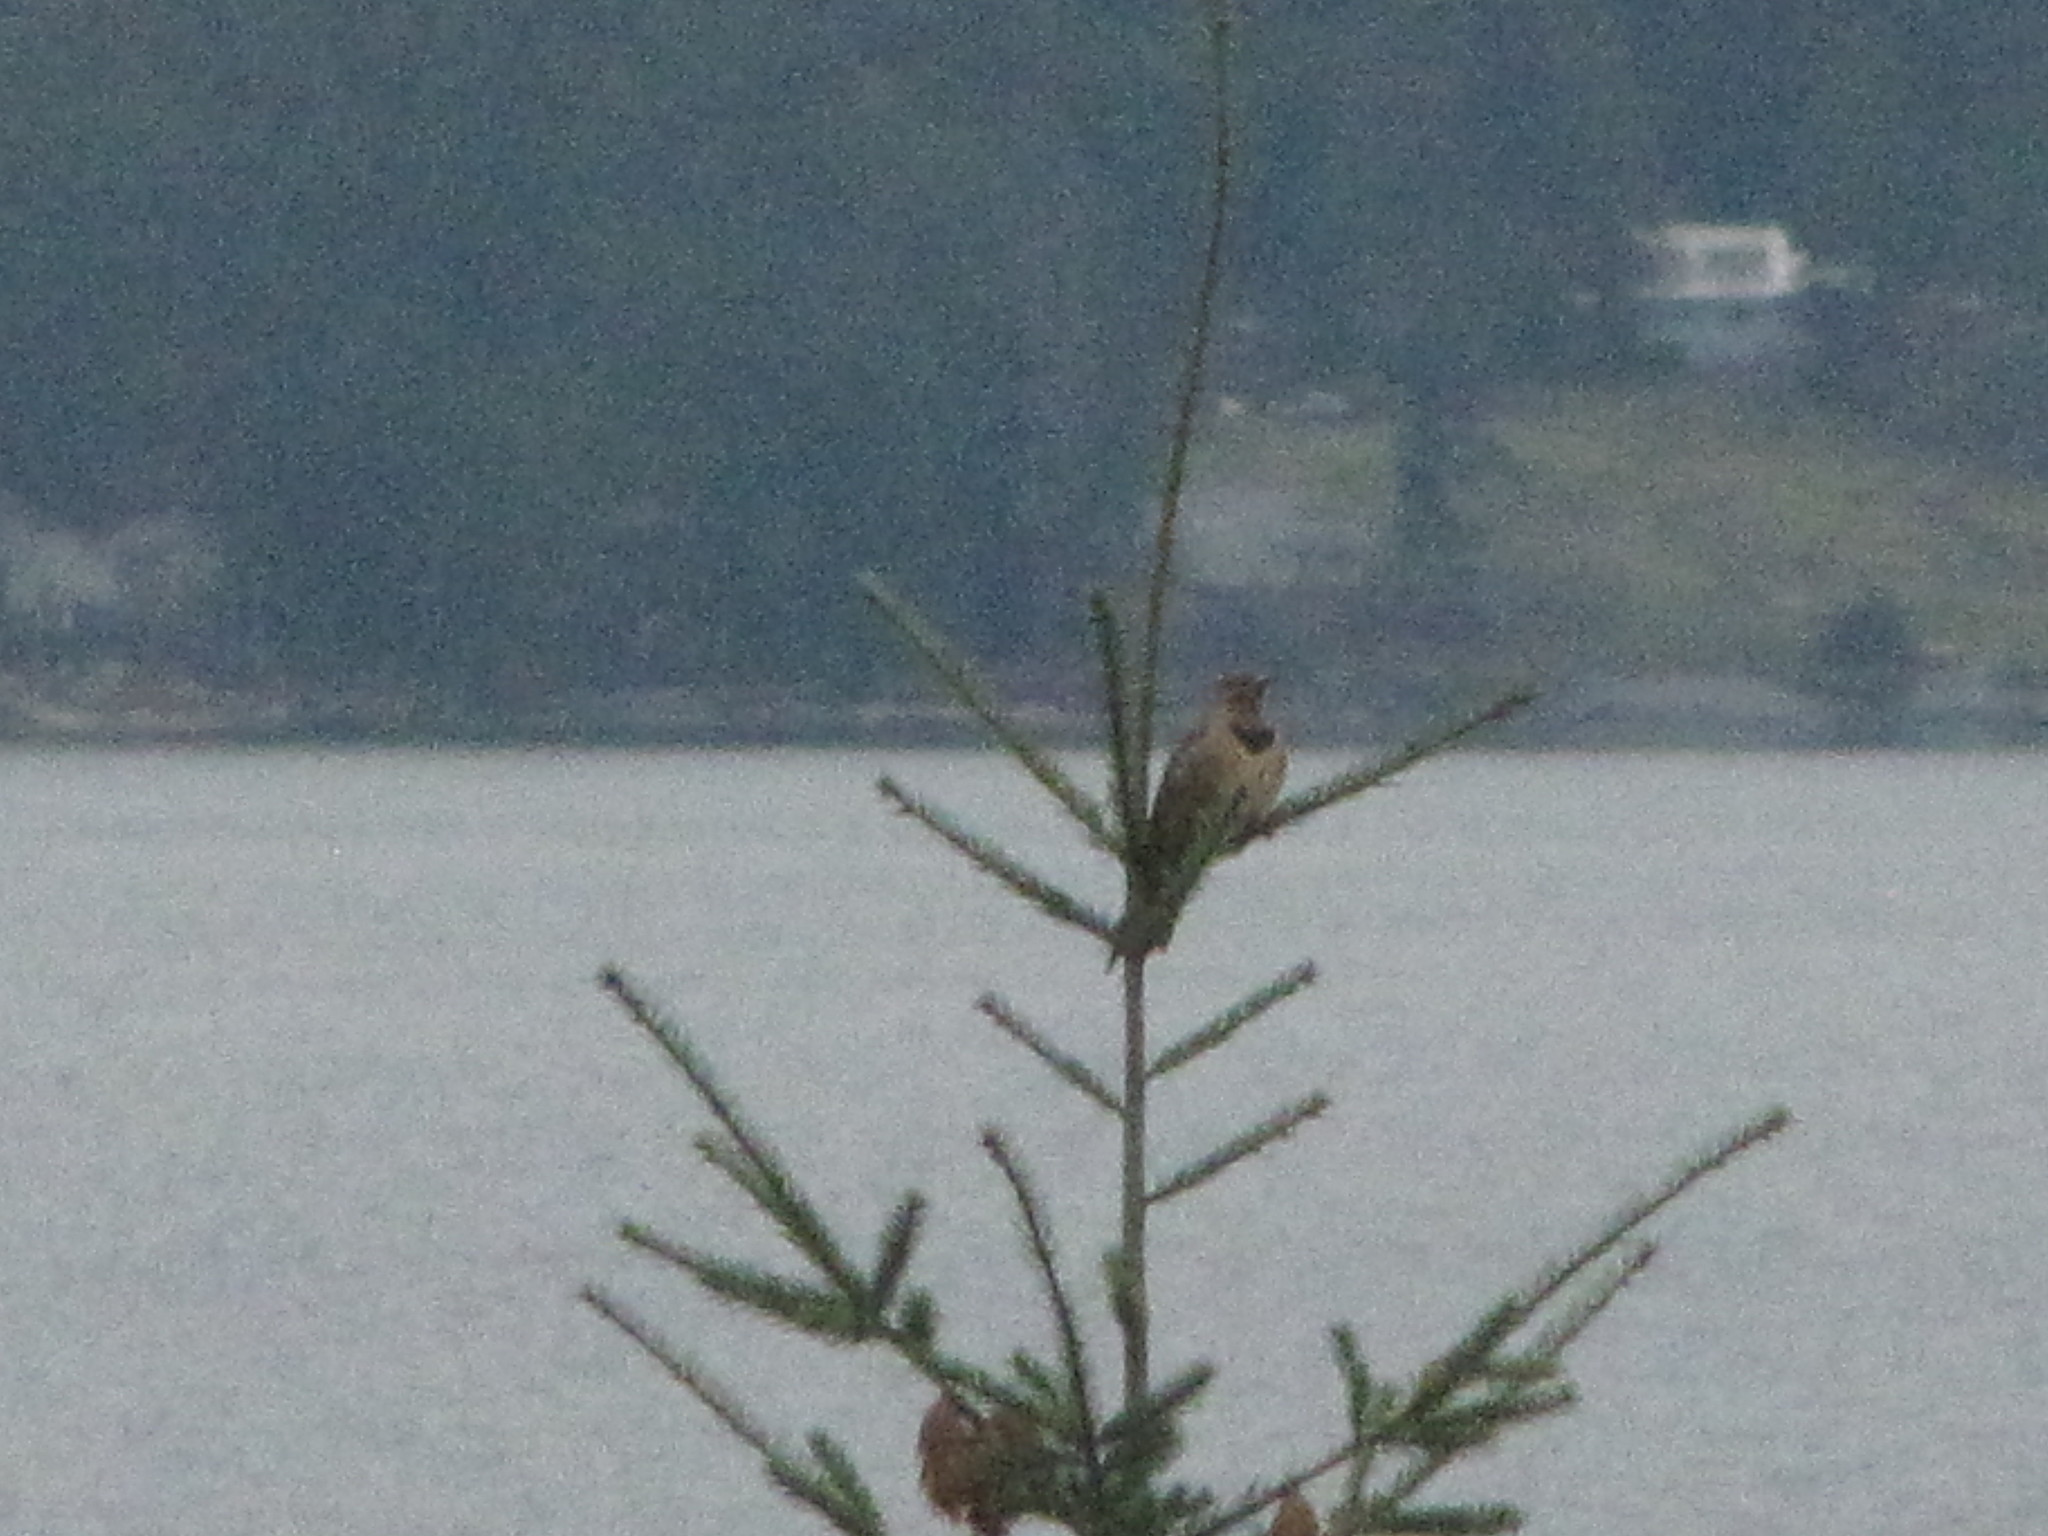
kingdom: Animalia
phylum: Chordata
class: Aves
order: Piciformes
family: Picidae
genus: Colaptes
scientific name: Colaptes auratus
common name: Northern flicker
